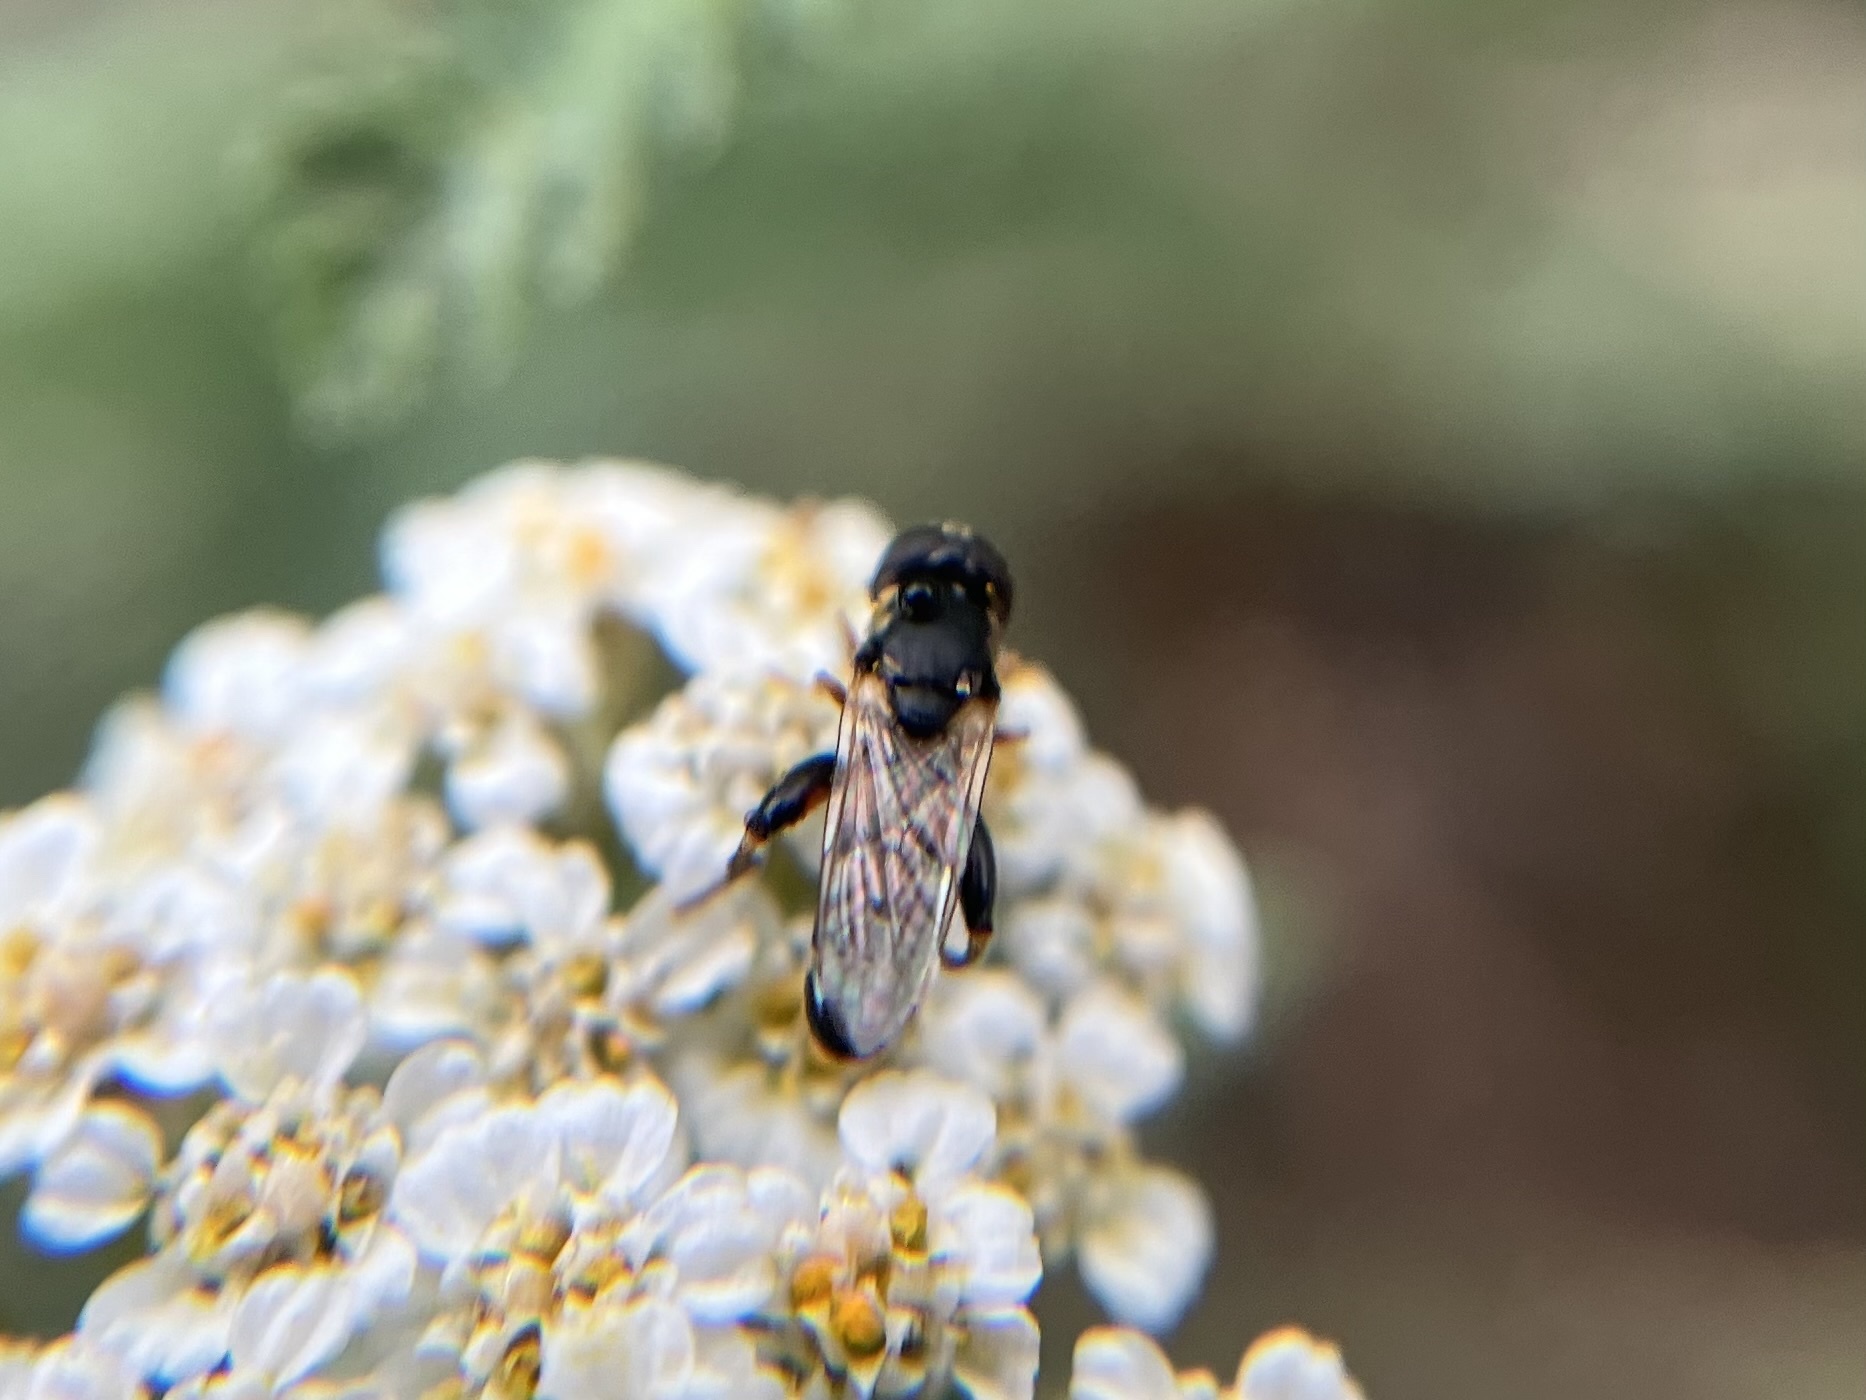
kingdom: Animalia
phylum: Arthropoda
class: Insecta
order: Diptera
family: Syrphidae
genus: Syritta
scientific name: Syritta pipiens
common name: Hover fly
